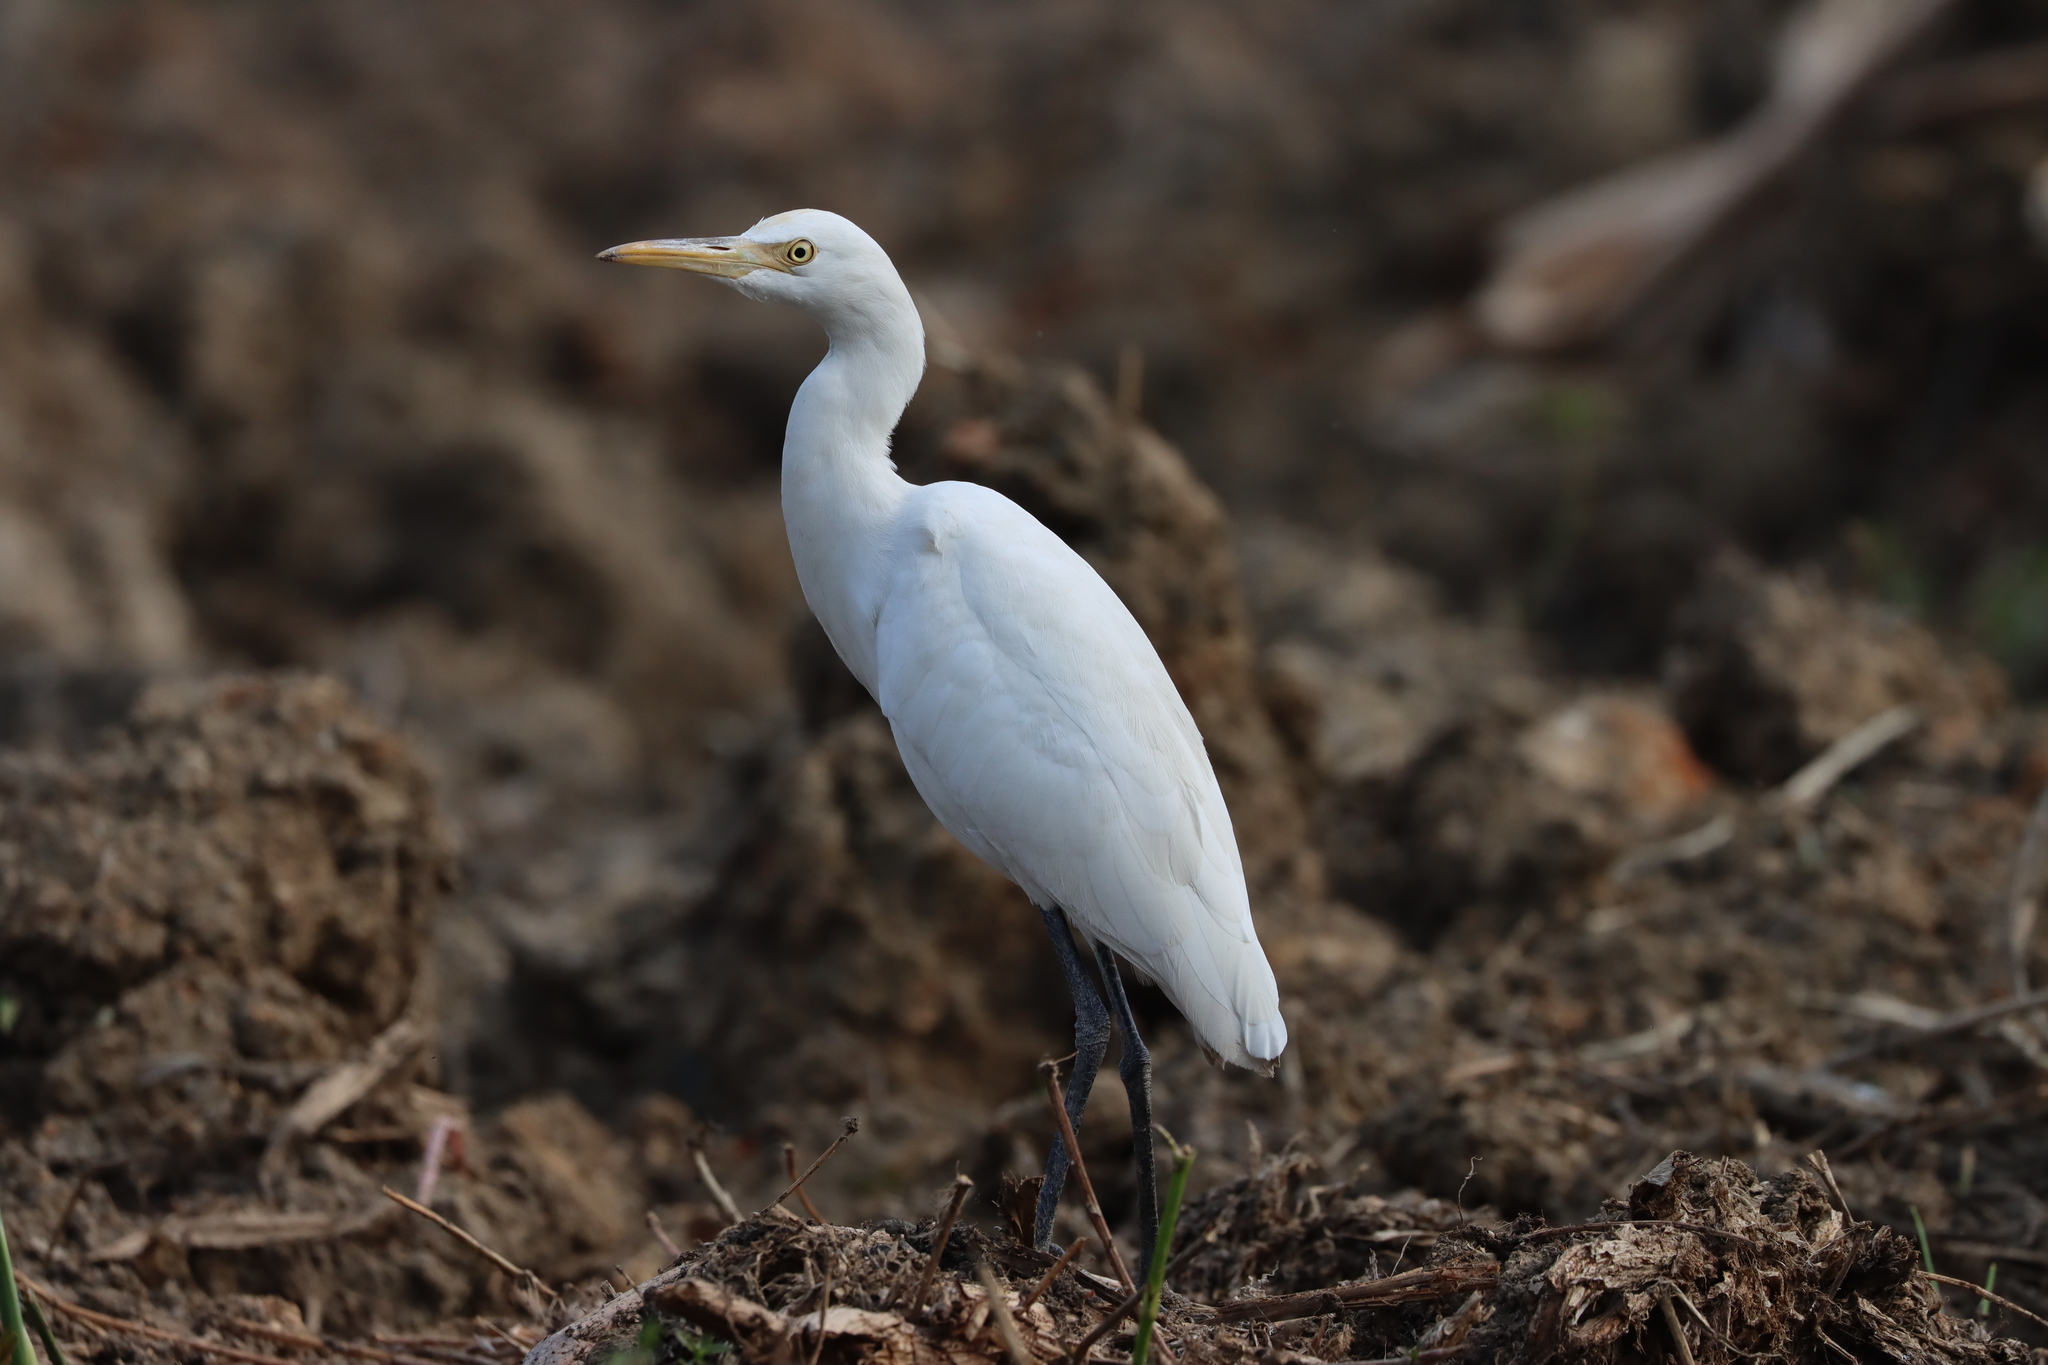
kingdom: Animalia
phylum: Chordata
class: Aves
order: Pelecaniformes
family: Ardeidae
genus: Bubulcus
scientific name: Bubulcus coromandus
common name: Eastern cattle egret
